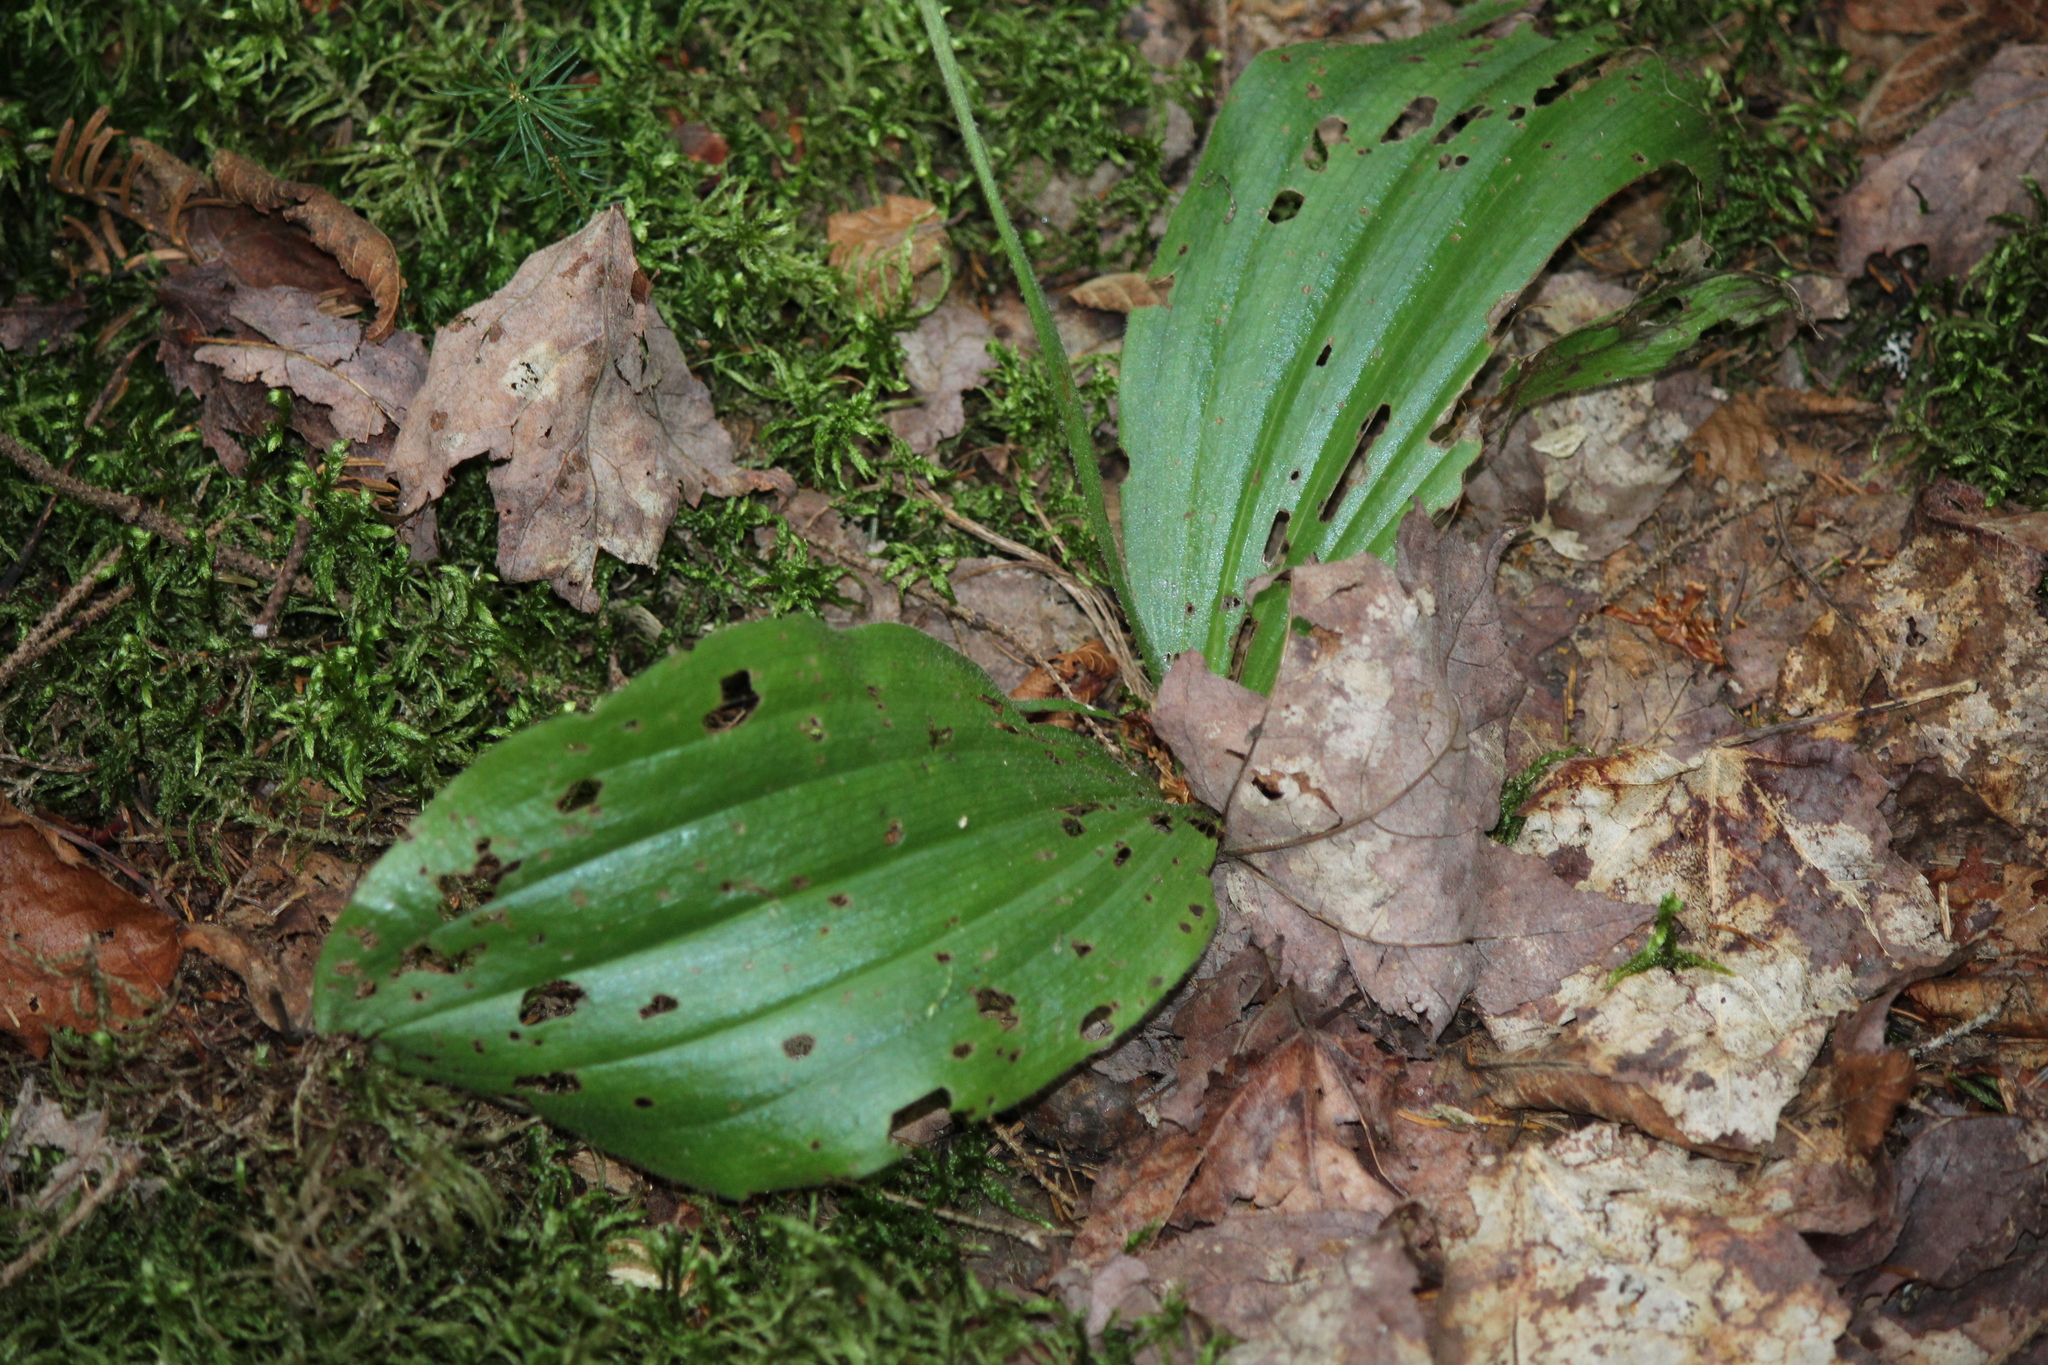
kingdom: Plantae
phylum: Tracheophyta
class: Liliopsida
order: Asparagales
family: Orchidaceae
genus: Cypripedium
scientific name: Cypripedium acaule
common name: Pink lady's-slipper
